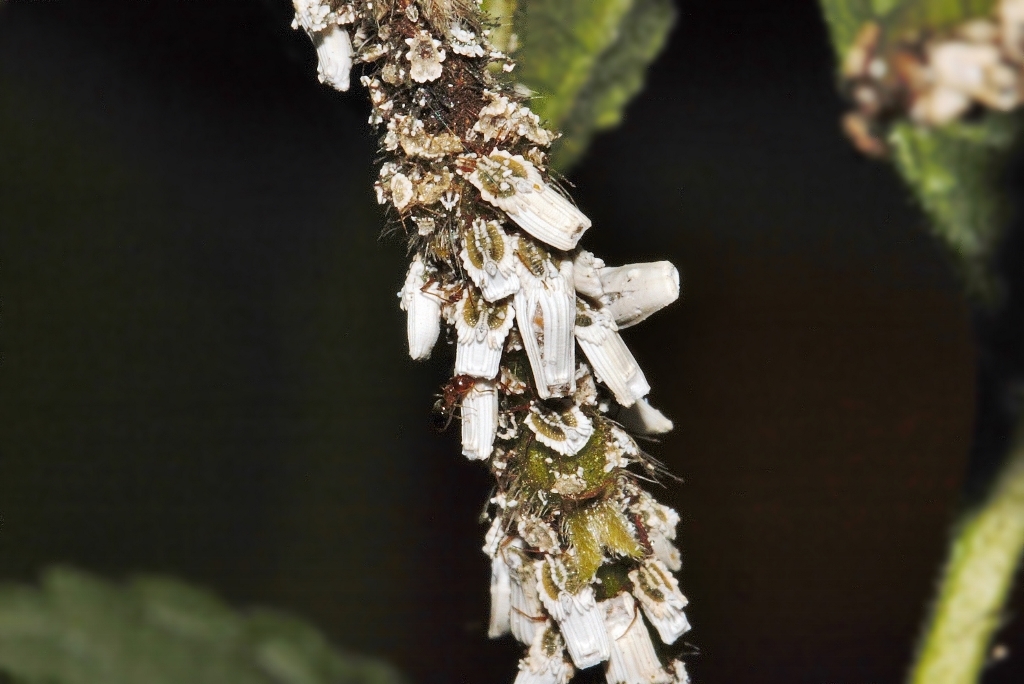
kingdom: Animalia
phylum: Arthropoda
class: Insecta
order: Hemiptera
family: Ortheziidae
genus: Insignorthezia
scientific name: Insignorthezia insignis
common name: Greenhouse orthezia
